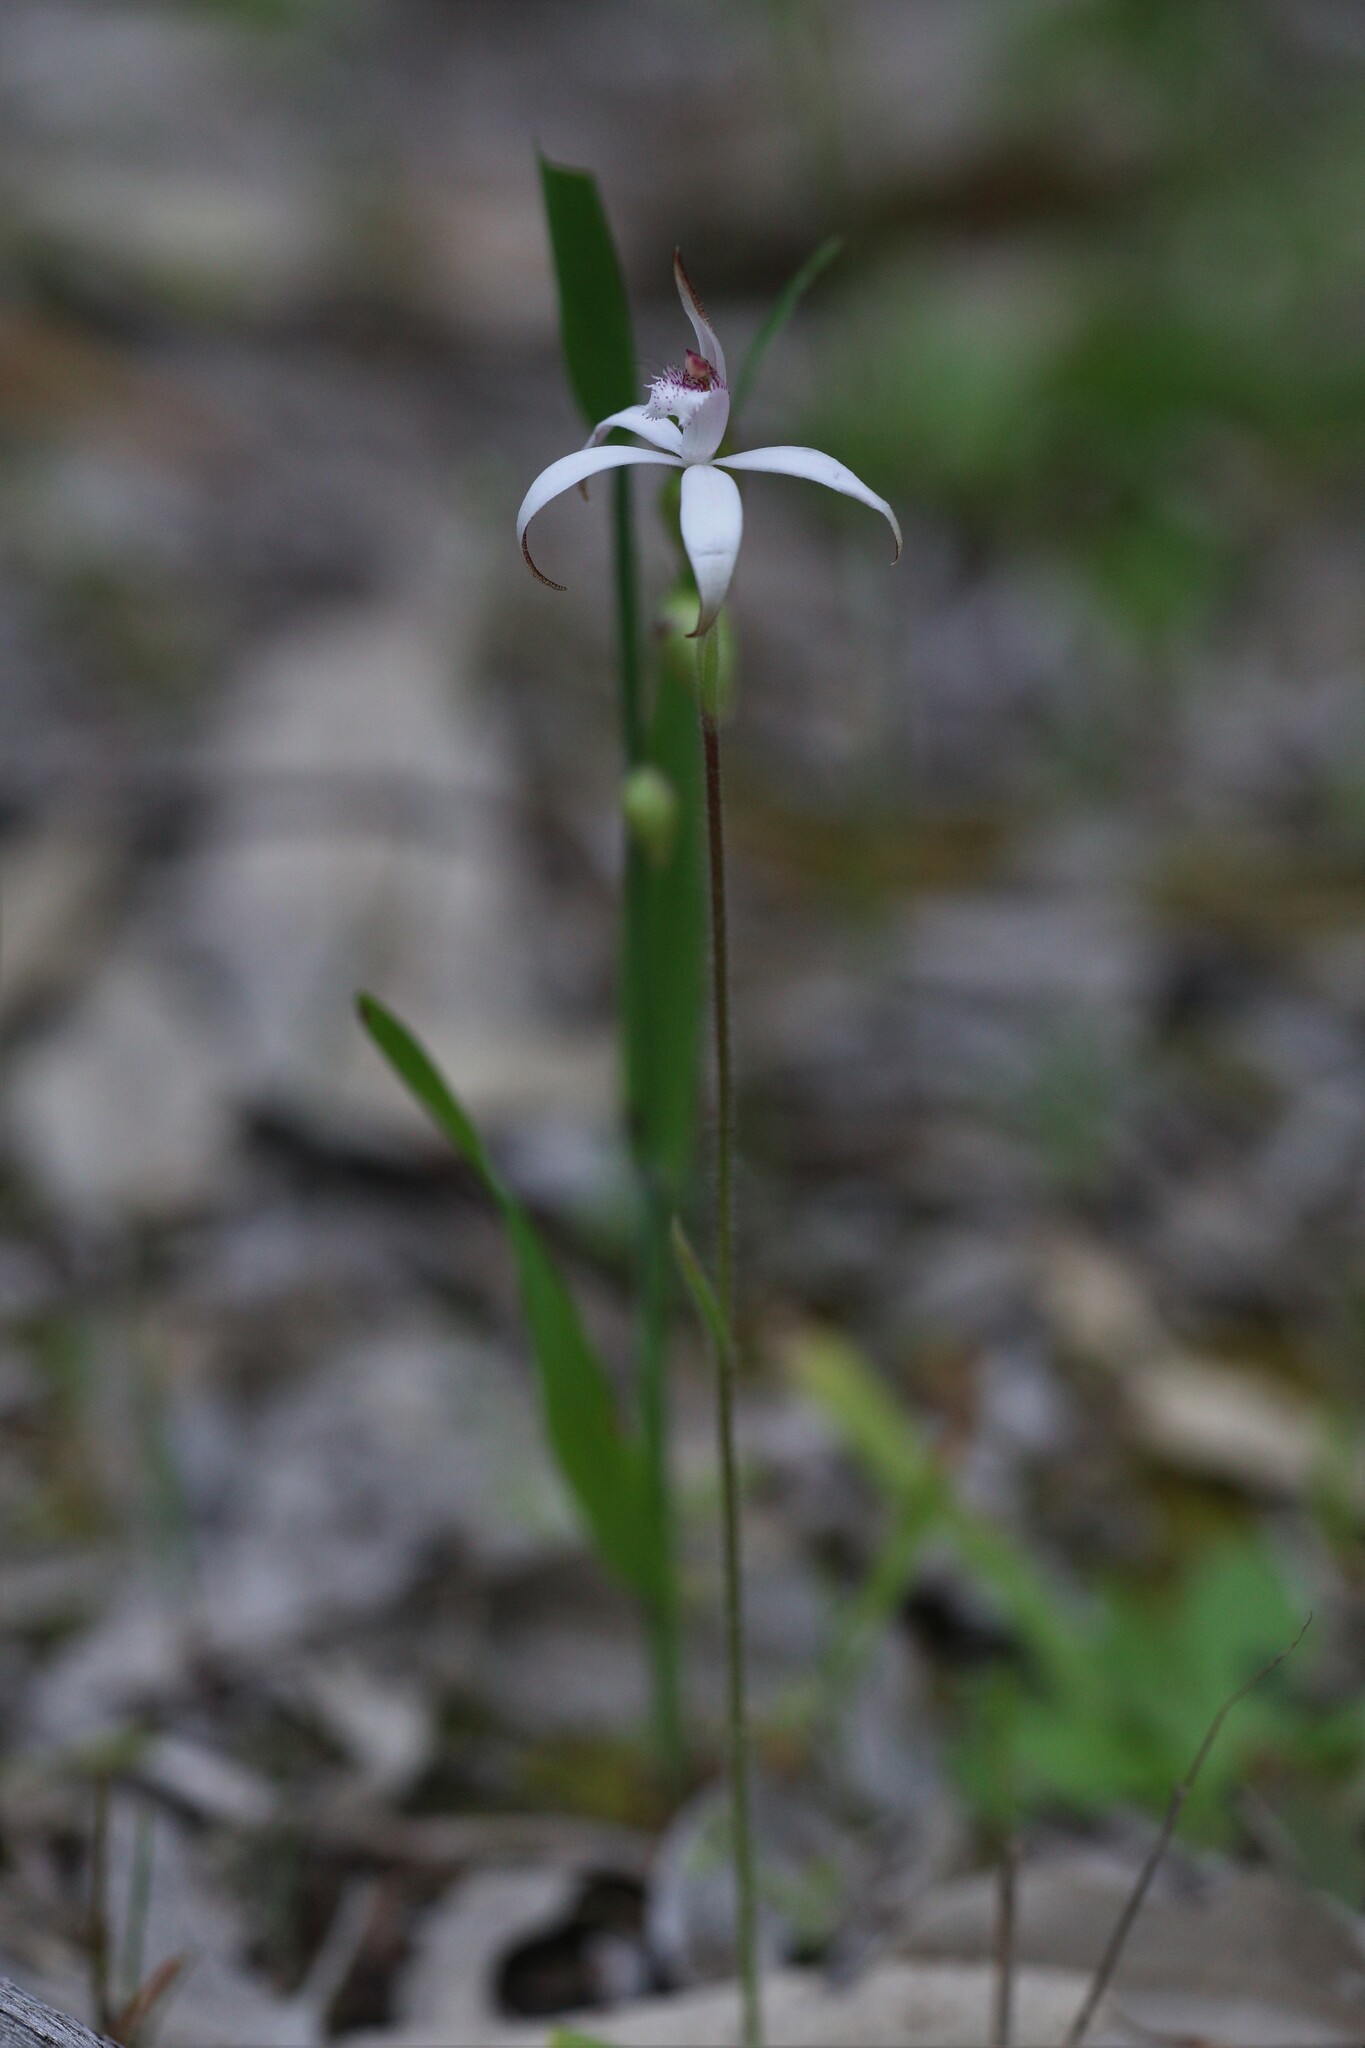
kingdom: Plantae
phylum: Tracheophyta
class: Liliopsida
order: Asparagales
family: Orchidaceae
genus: Caladenia
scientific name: Caladenia hirta
